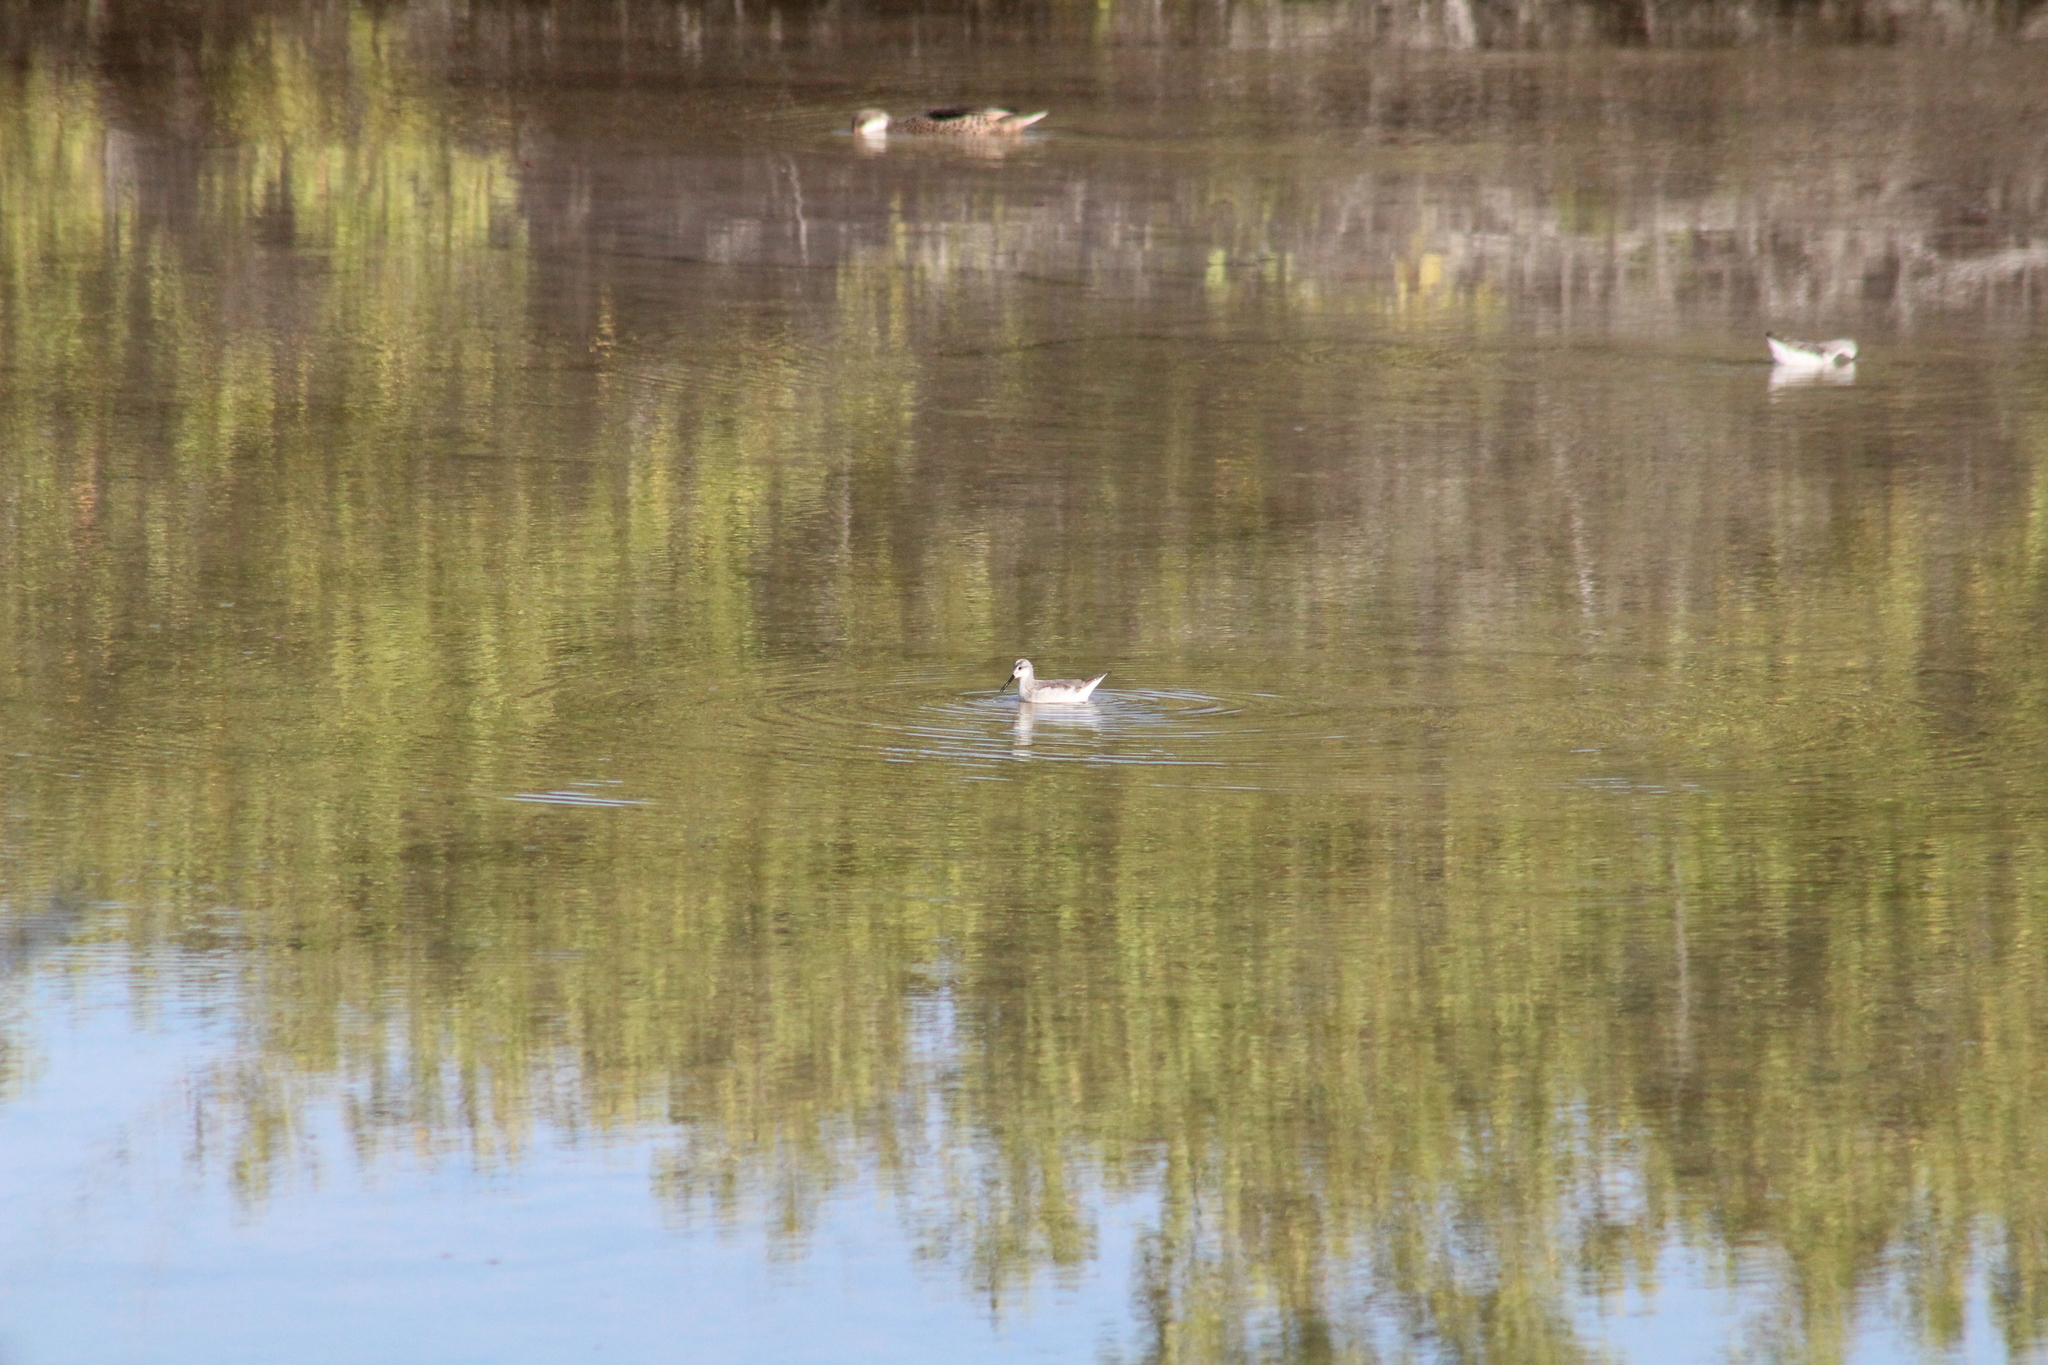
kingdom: Animalia
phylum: Chordata
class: Aves
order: Charadriiformes
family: Scolopacidae
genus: Phalaropus
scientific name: Phalaropus tricolor
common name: Wilson's phalarope
